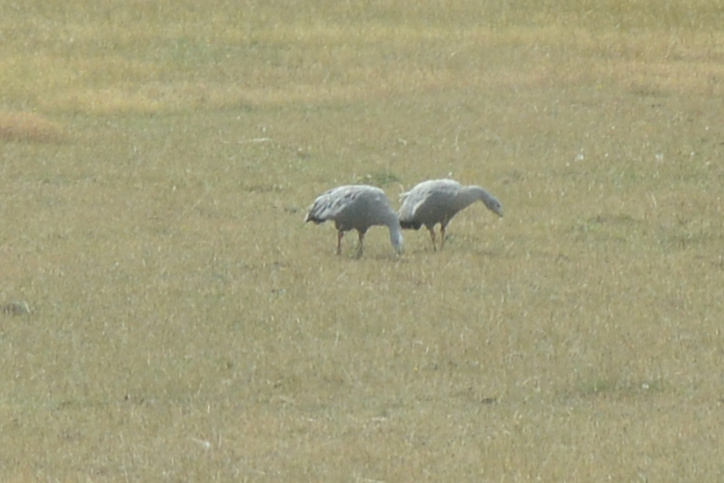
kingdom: Animalia
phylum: Chordata
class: Aves
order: Anseriformes
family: Anatidae
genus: Cereopsis
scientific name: Cereopsis novaehollandiae
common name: Cape barren goose
